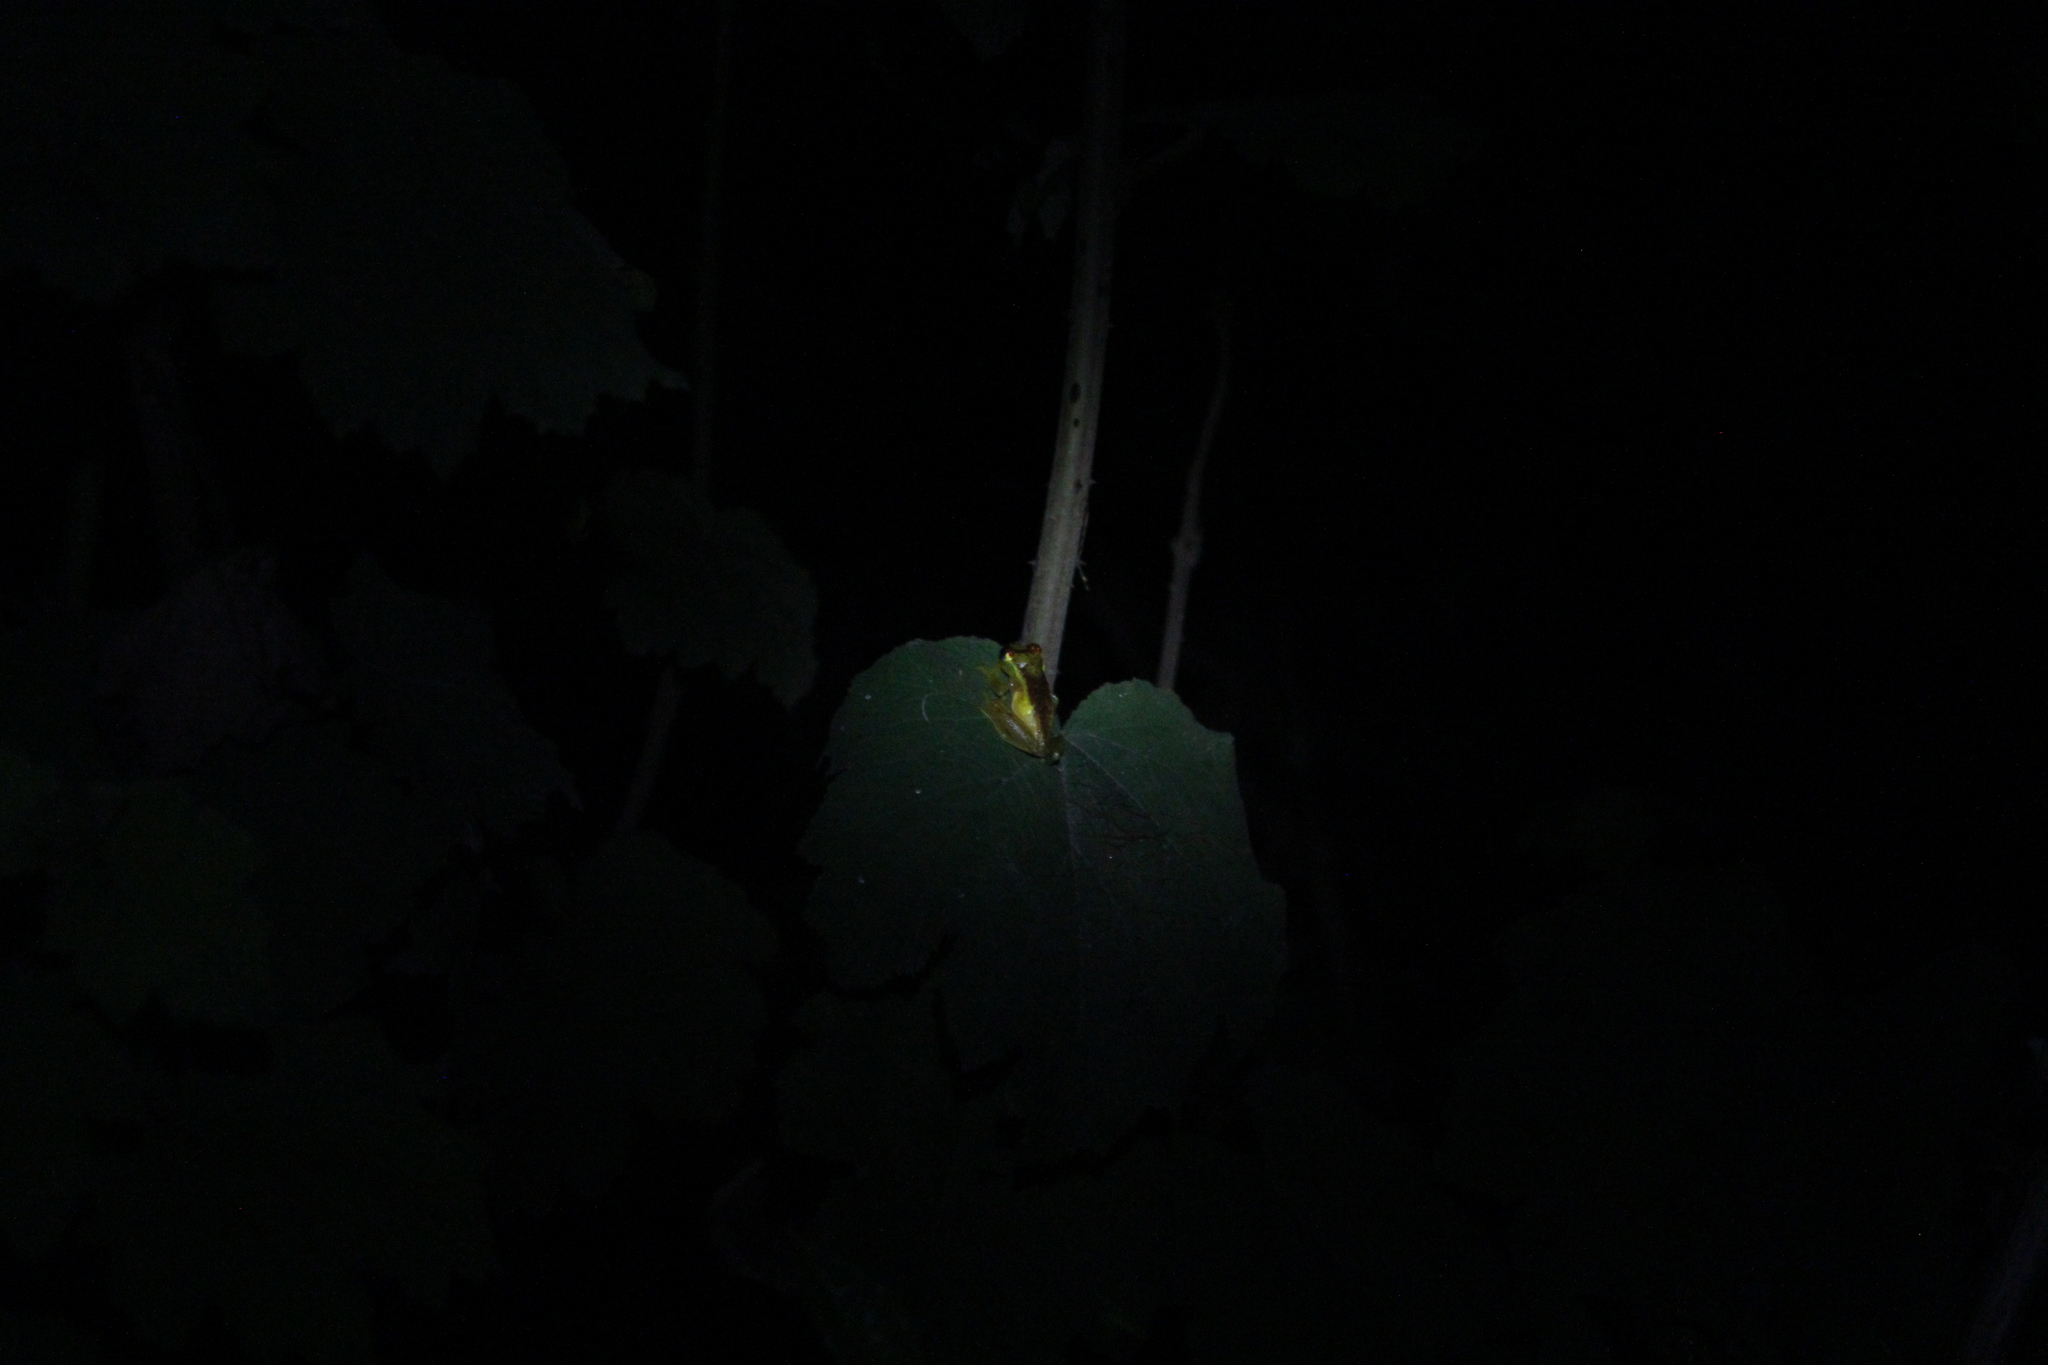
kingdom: Animalia
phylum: Chordata
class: Amphibia
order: Anura
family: Mantellidae
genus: Boophis
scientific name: Boophis bottae
